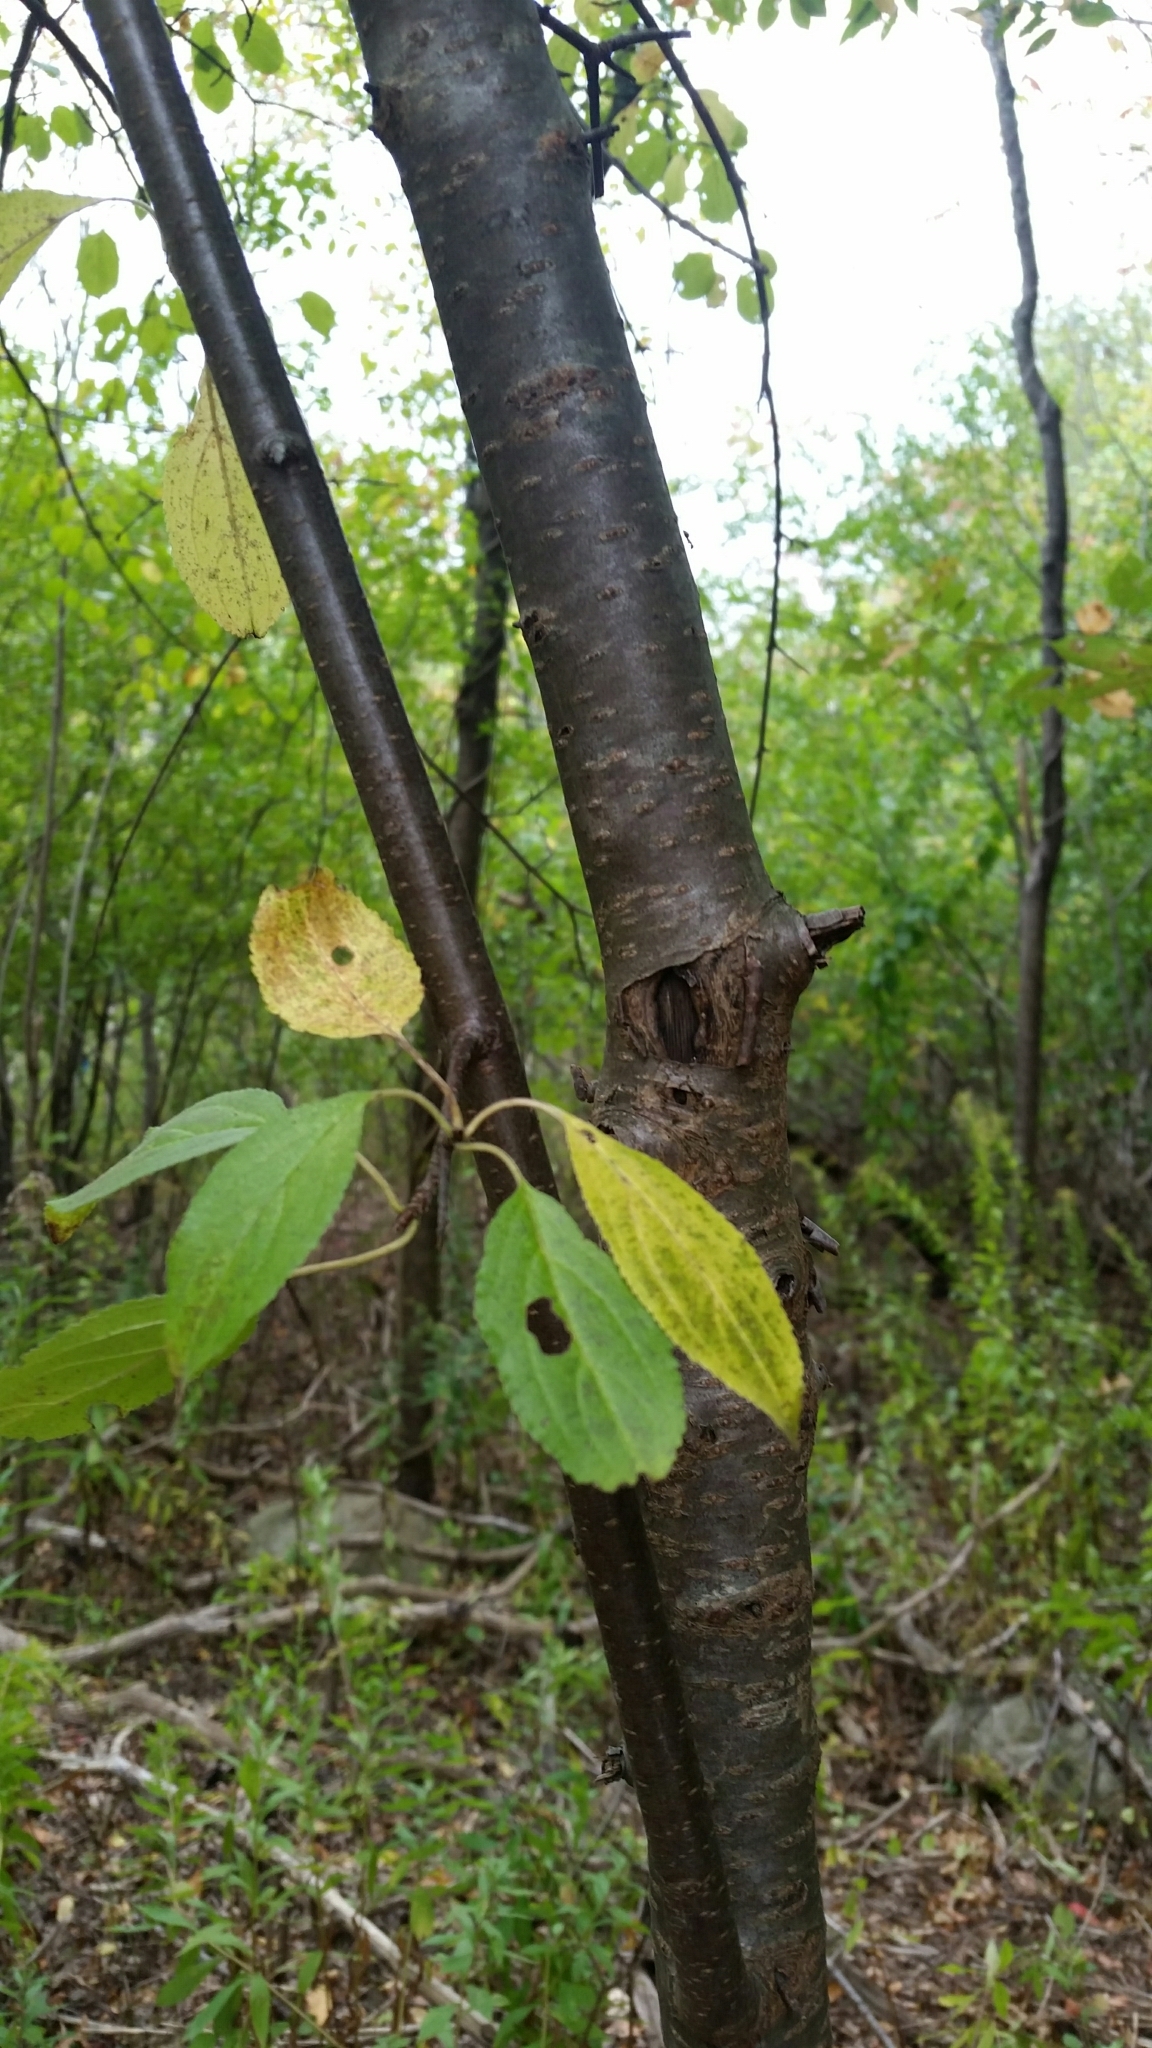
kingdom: Plantae
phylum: Tracheophyta
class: Magnoliopsida
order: Rosales
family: Rhamnaceae
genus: Rhamnus
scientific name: Rhamnus cathartica
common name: Common buckthorn
